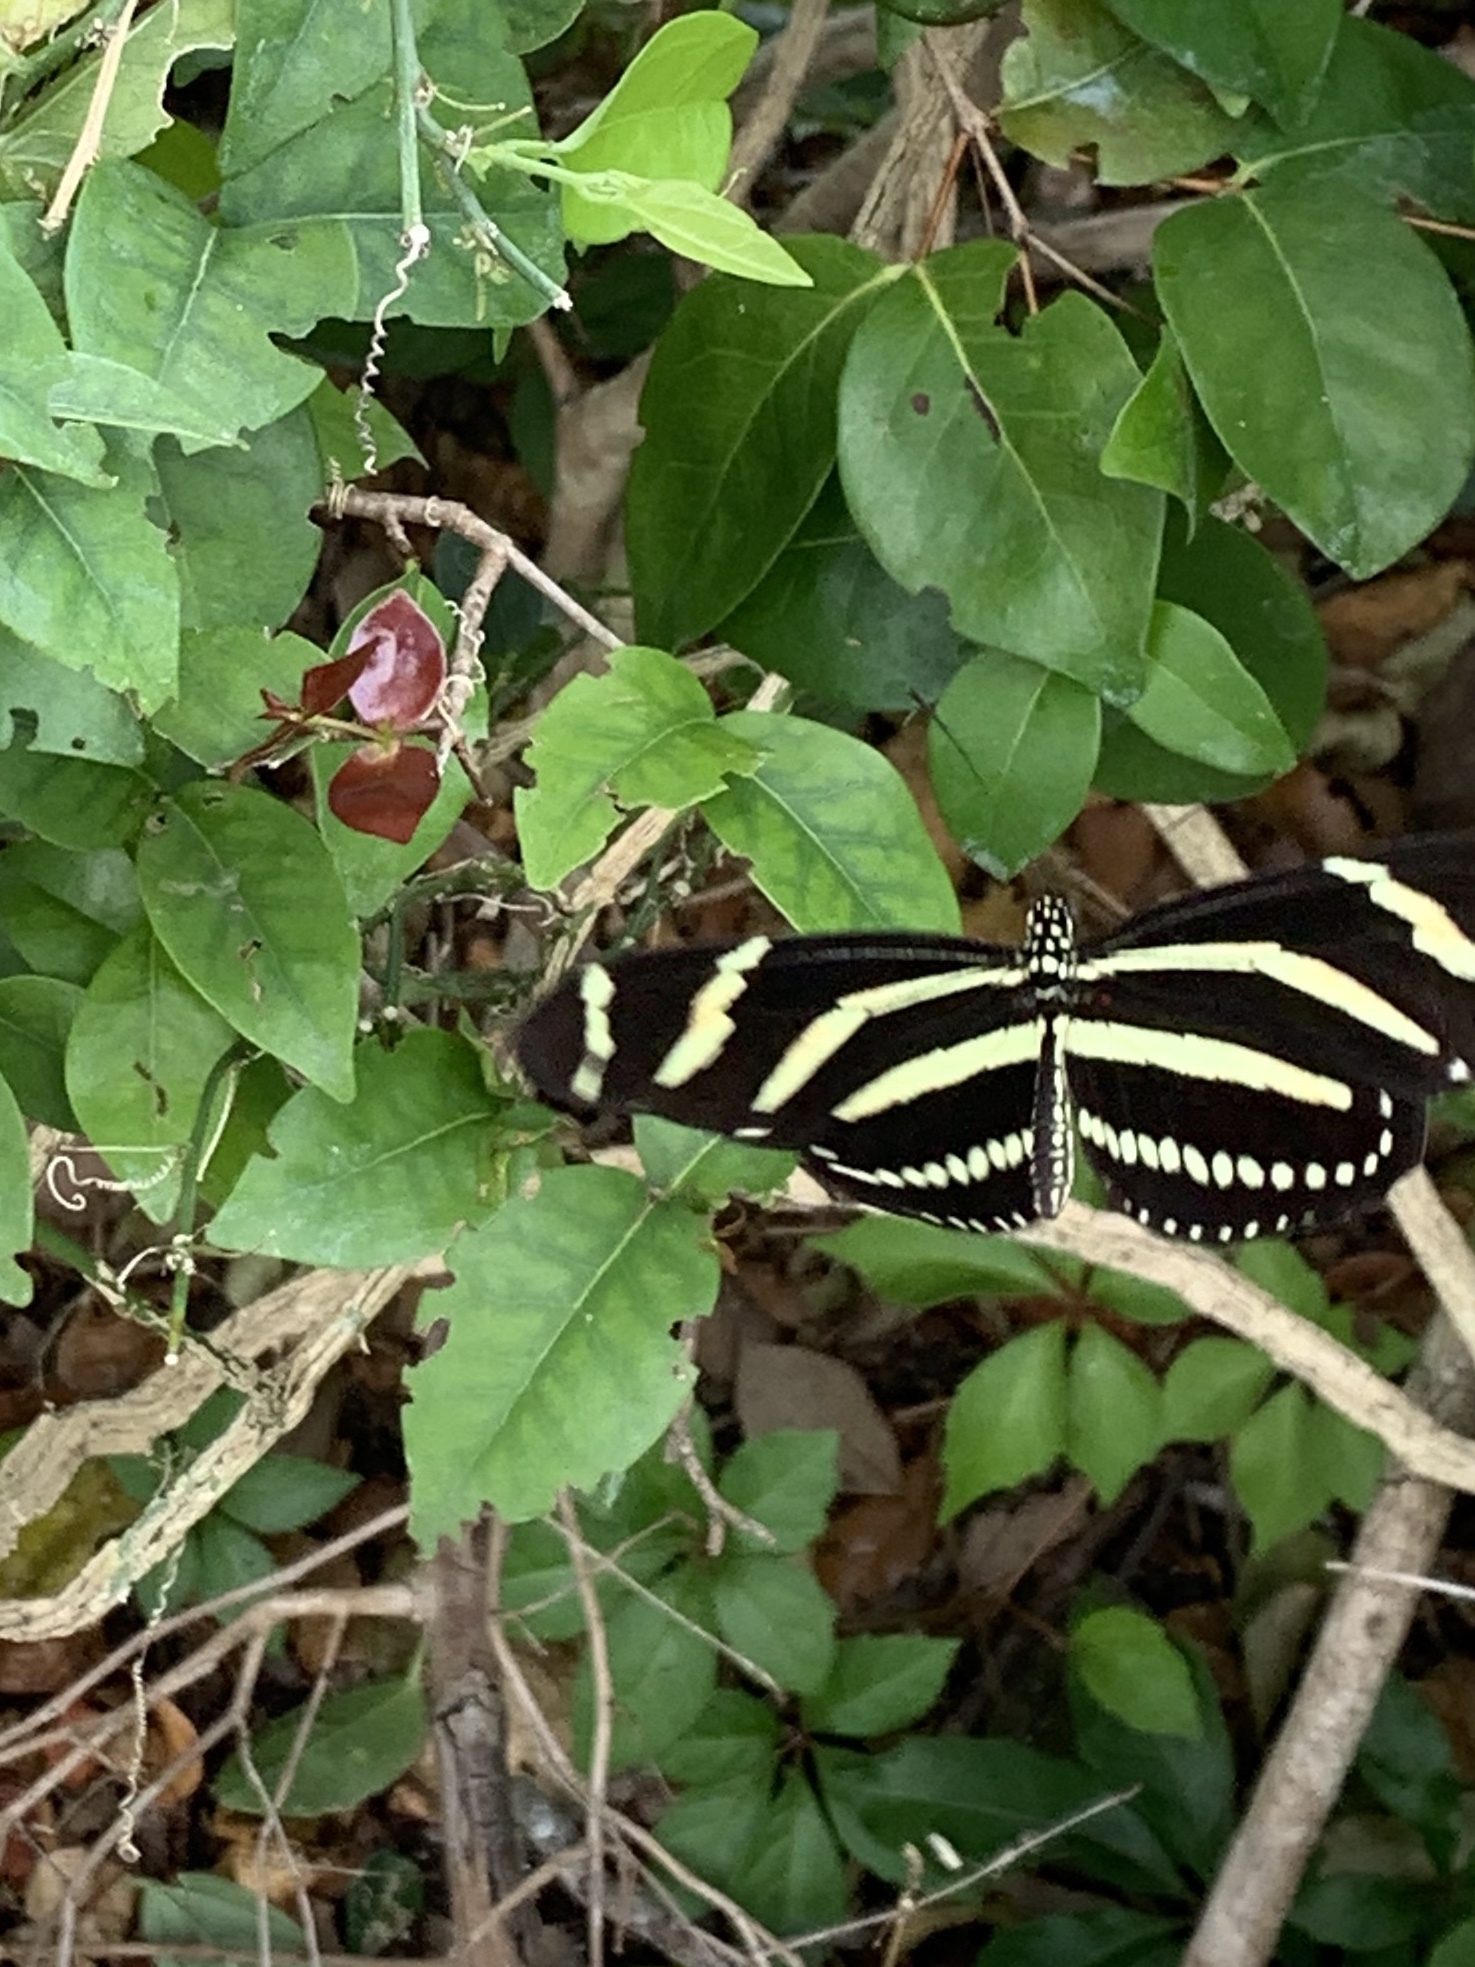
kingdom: Animalia
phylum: Arthropoda
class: Insecta
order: Lepidoptera
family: Nymphalidae
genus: Heliconius
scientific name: Heliconius charithonia
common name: Zebra long wing
